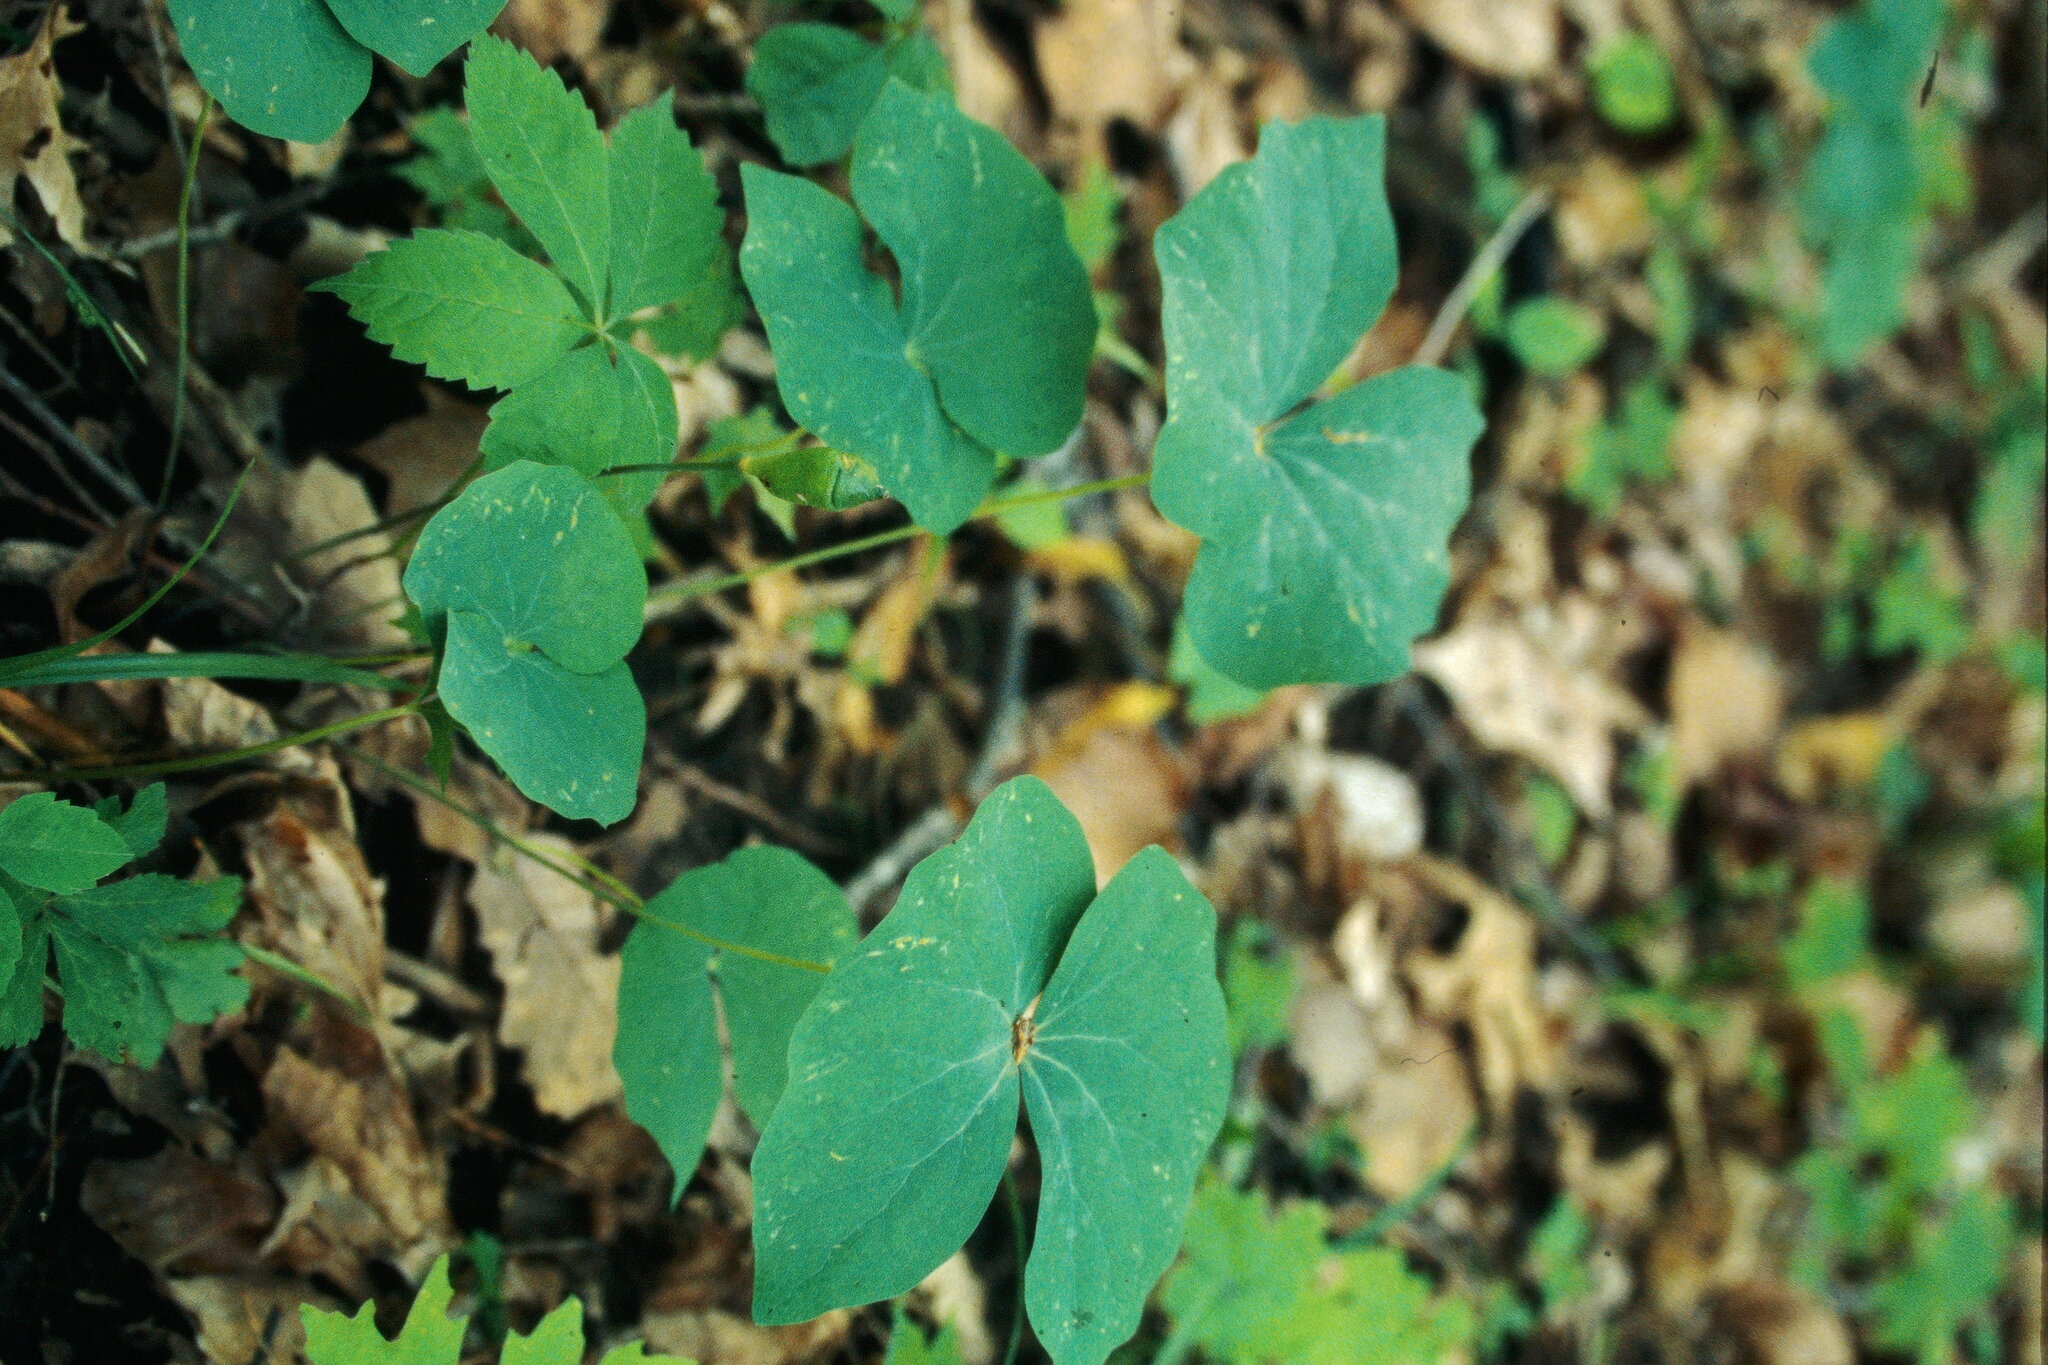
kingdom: Plantae
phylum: Tracheophyta
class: Magnoliopsida
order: Ranunculales
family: Berberidaceae
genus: Jeffersonia
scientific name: Jeffersonia diphylla
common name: Rheumatism-root
